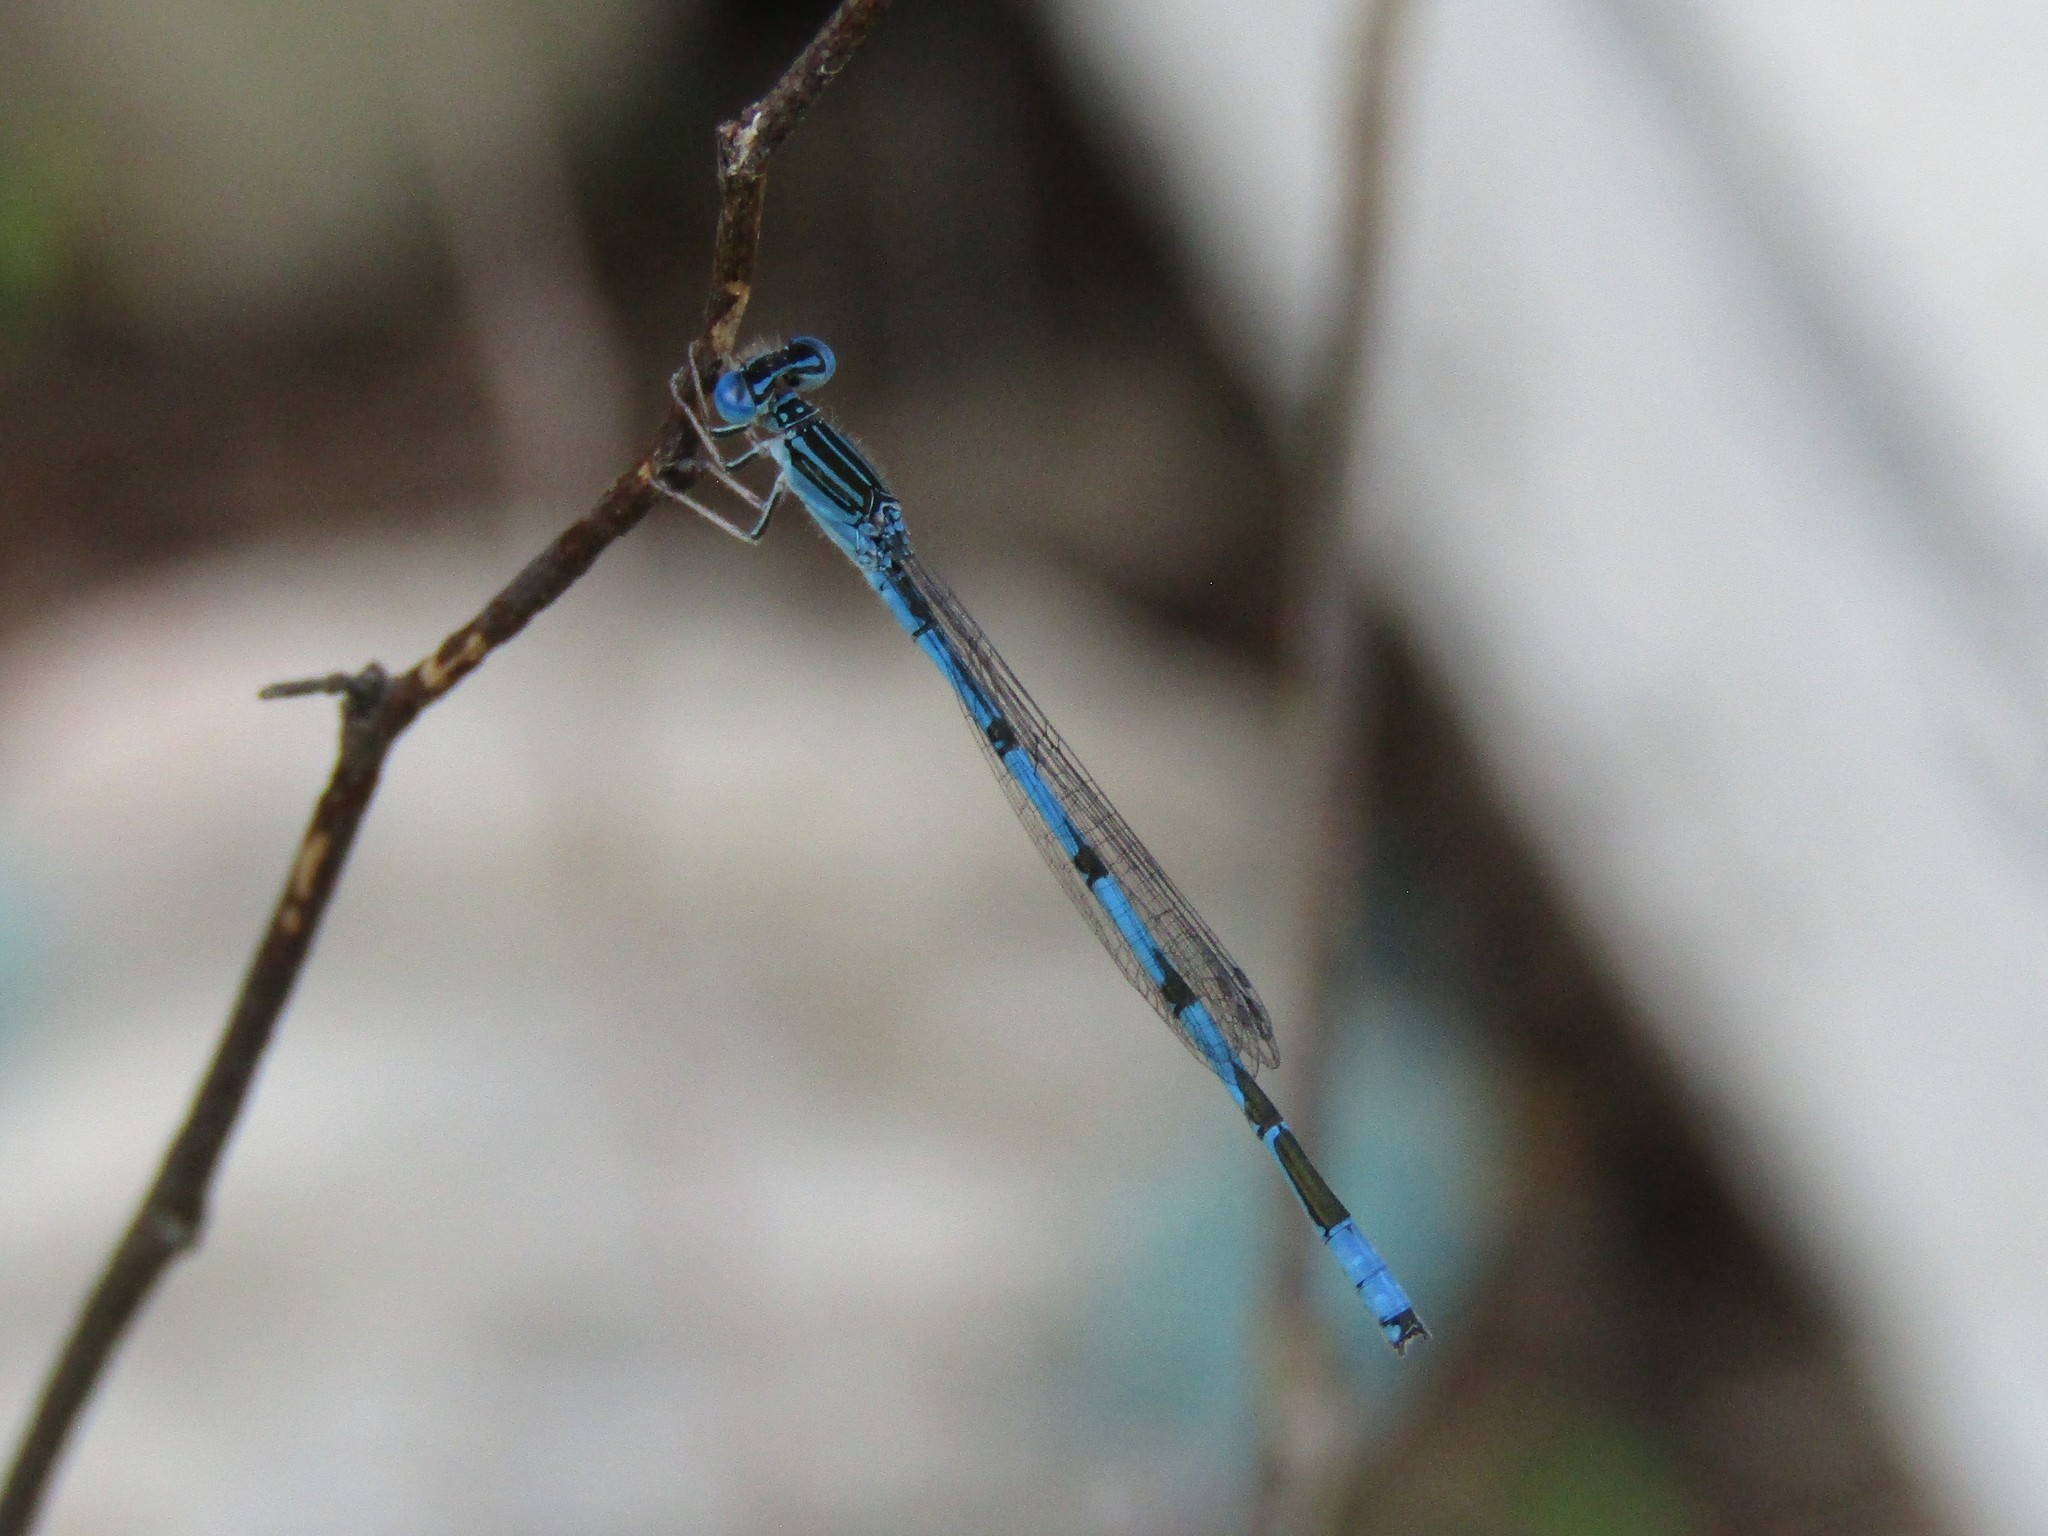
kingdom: Animalia
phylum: Arthropoda
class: Insecta
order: Odonata
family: Coenagrionidae
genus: Enallagma
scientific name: Enallagma basidens
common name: Double-striped bluet
